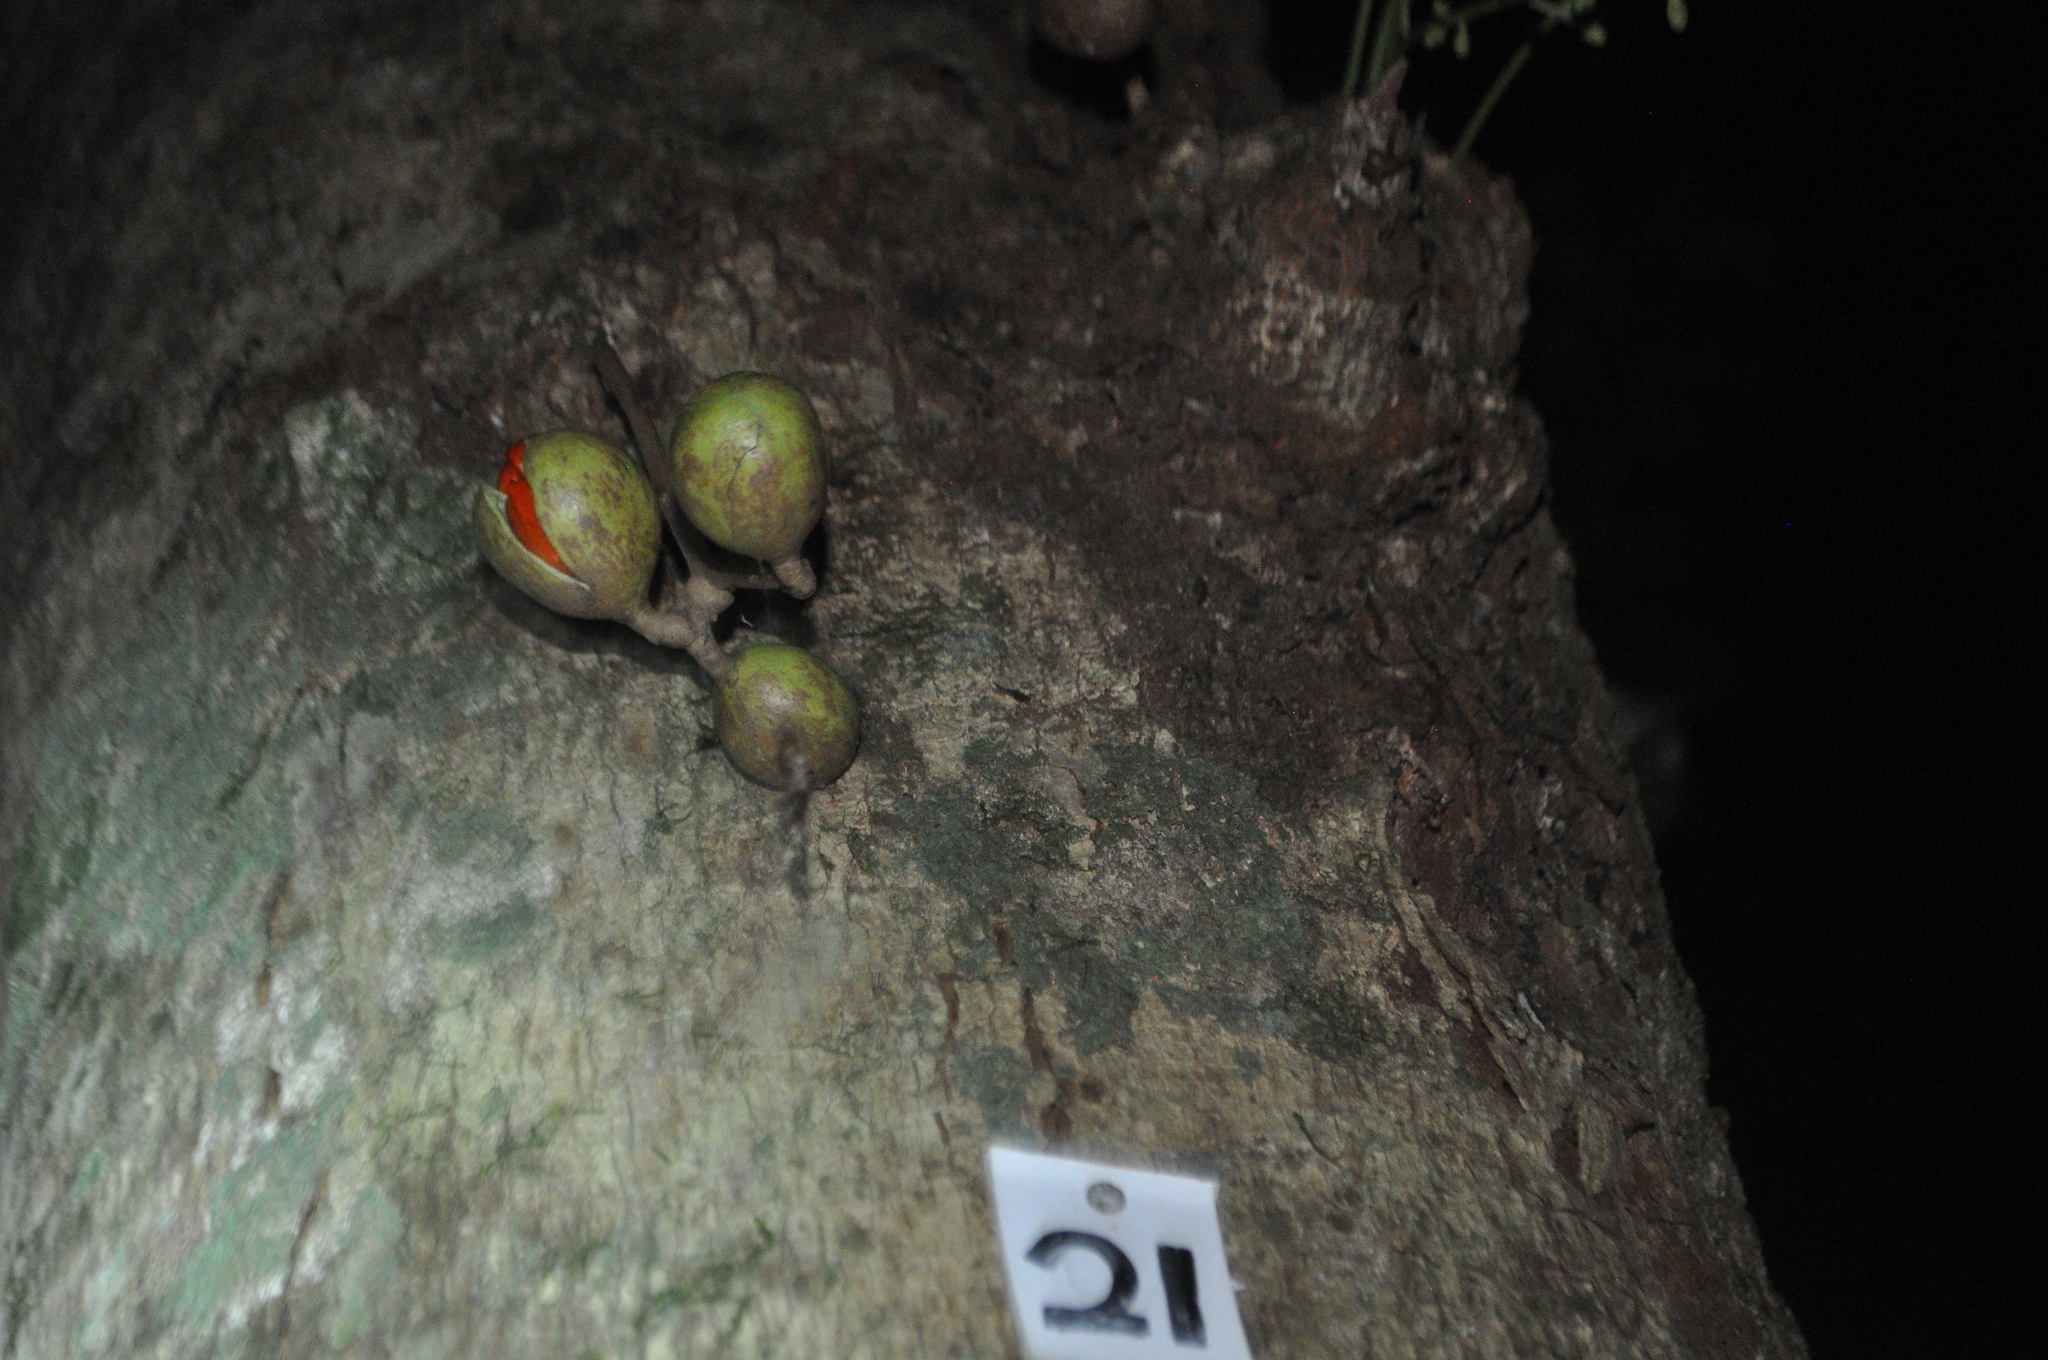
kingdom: Plantae
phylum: Tracheophyta
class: Magnoliopsida
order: Sapindales
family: Meliaceae
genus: Didymocheton
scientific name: Didymocheton spectabilis
